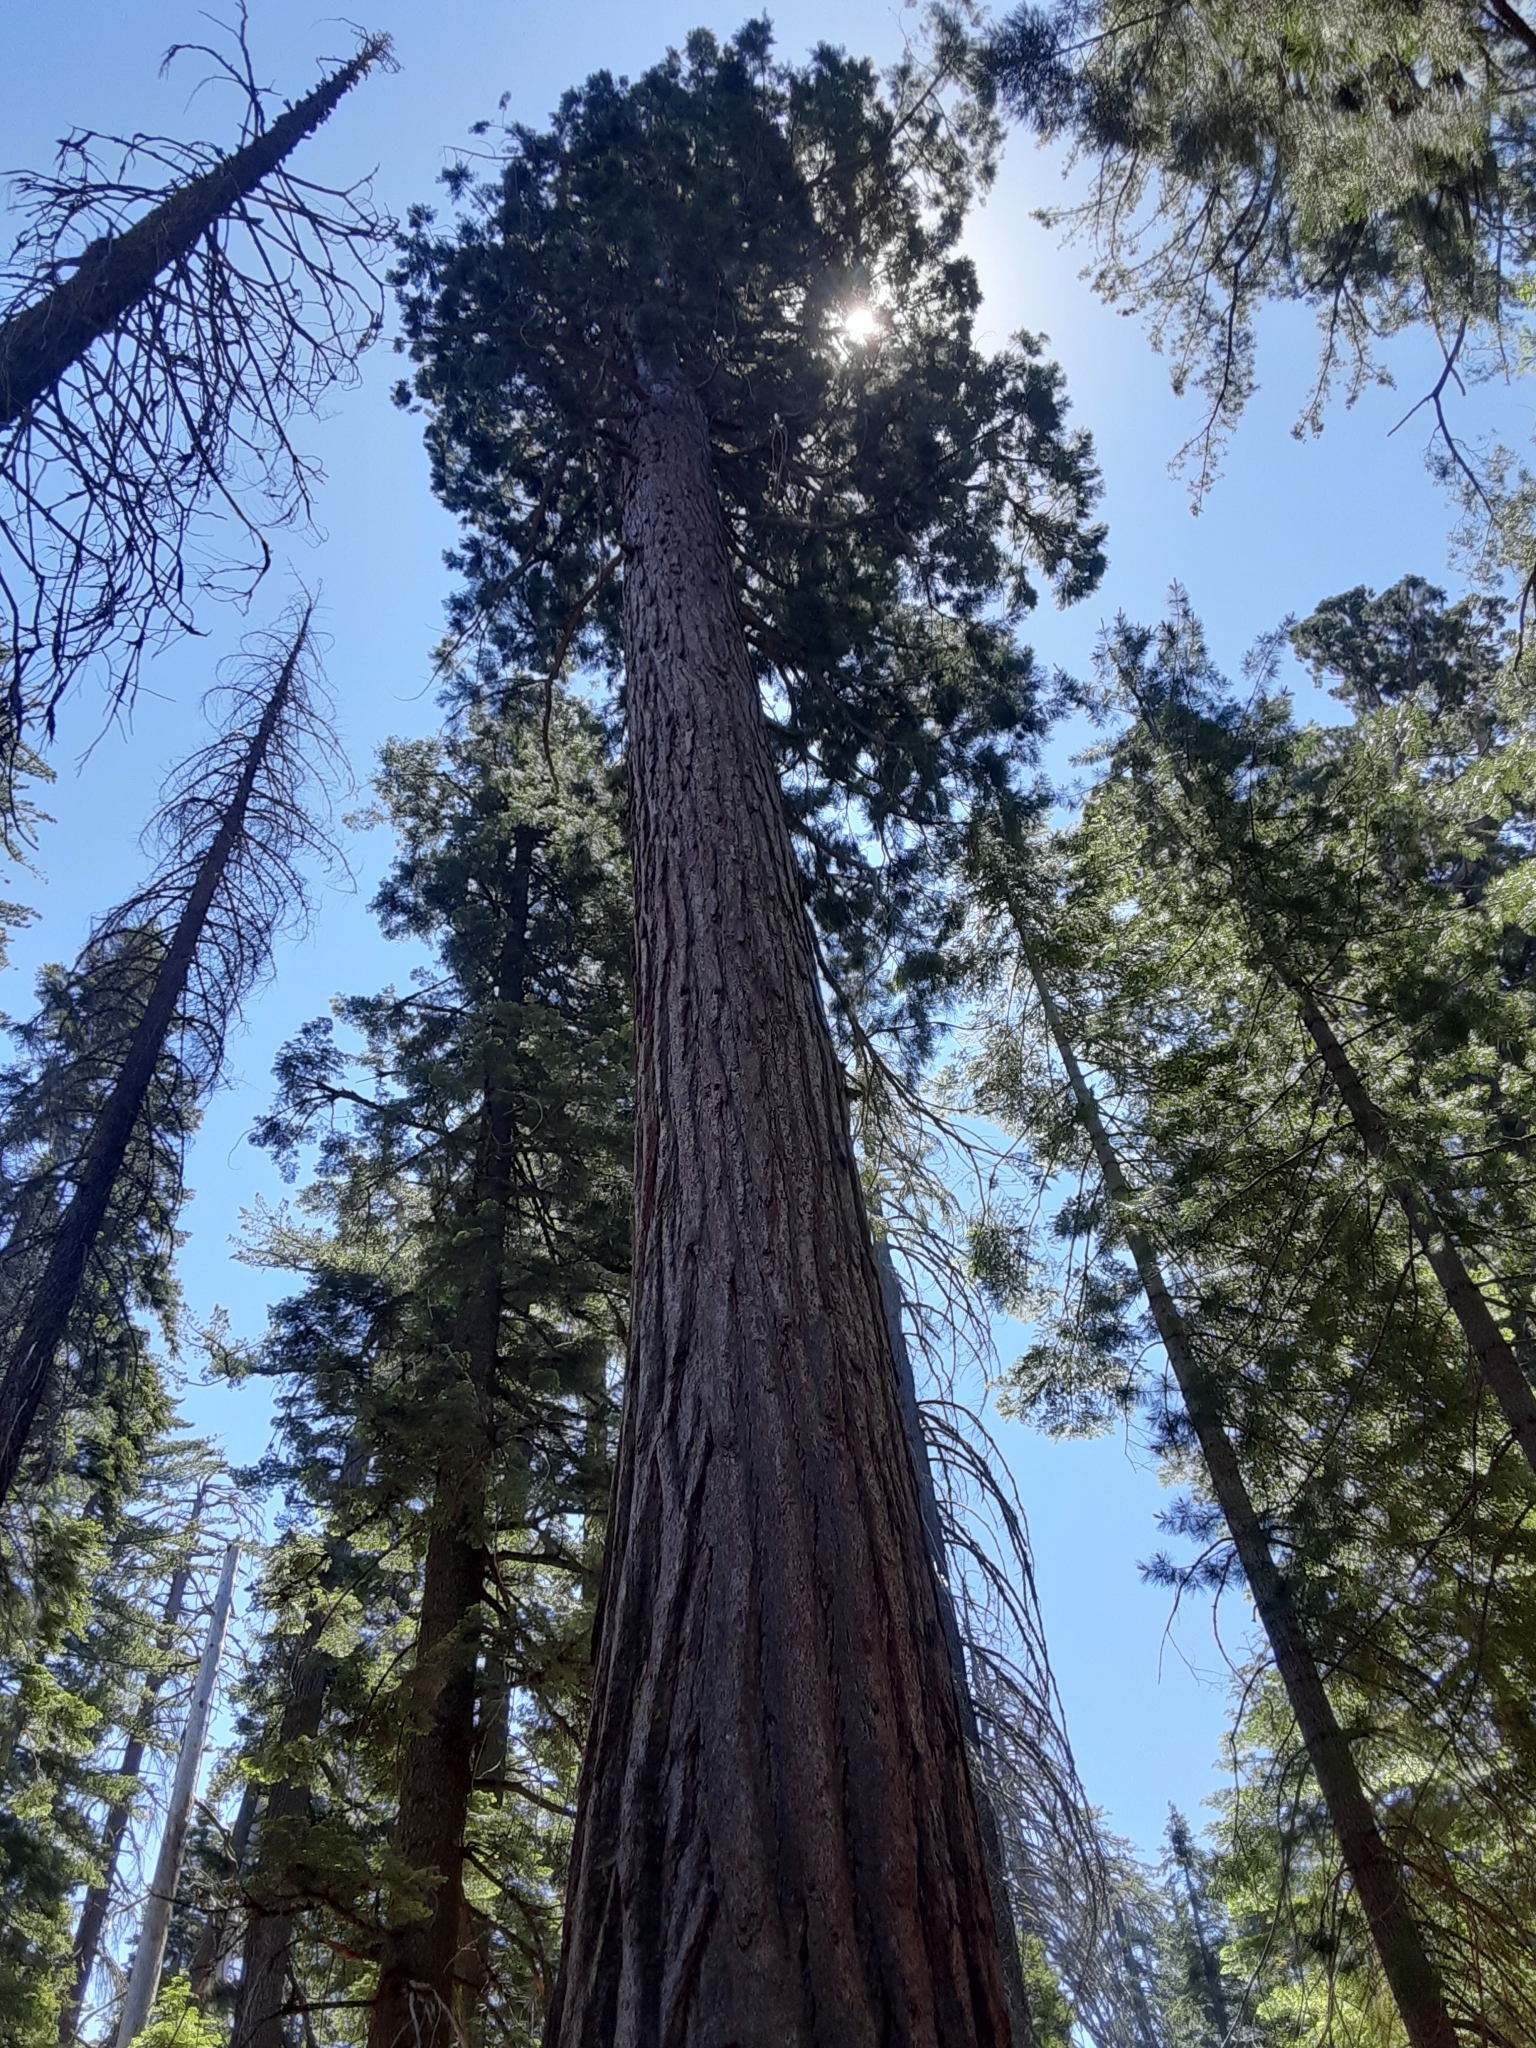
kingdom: Plantae
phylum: Tracheophyta
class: Pinopsida
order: Pinales
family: Cupressaceae
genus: Sequoiadendron
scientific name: Sequoiadendron giganteum
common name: Wellingtonia
